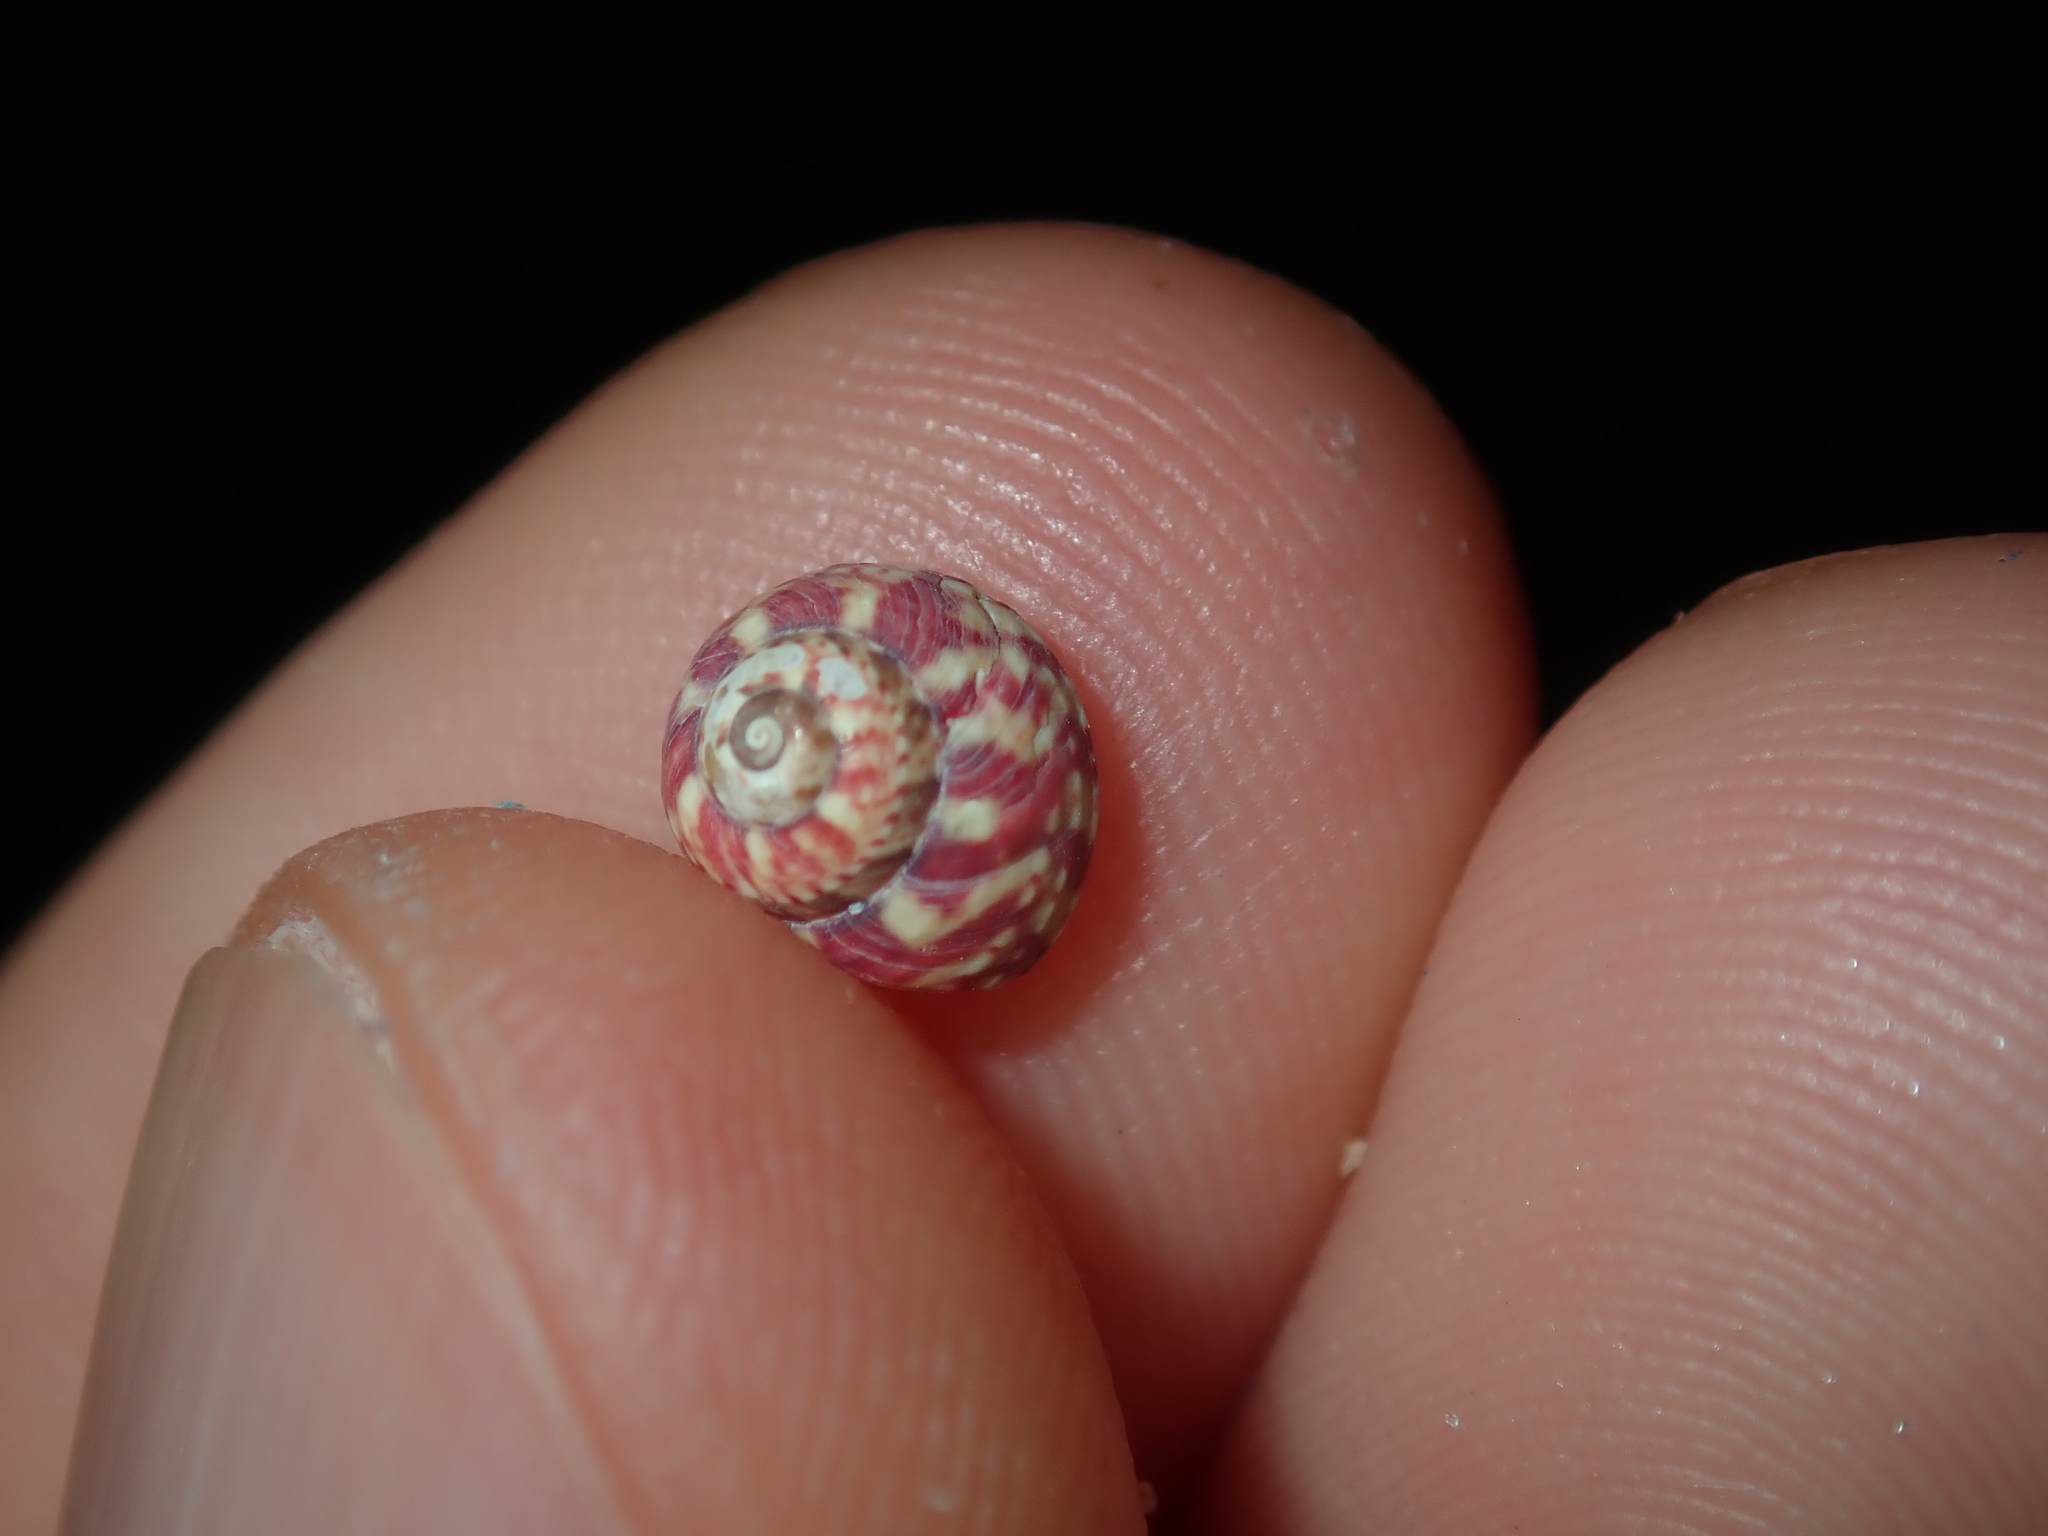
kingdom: Animalia
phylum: Mollusca
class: Gastropoda
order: Trochida
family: Trochidae
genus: Cantharidella
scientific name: Cantharidella picturata
